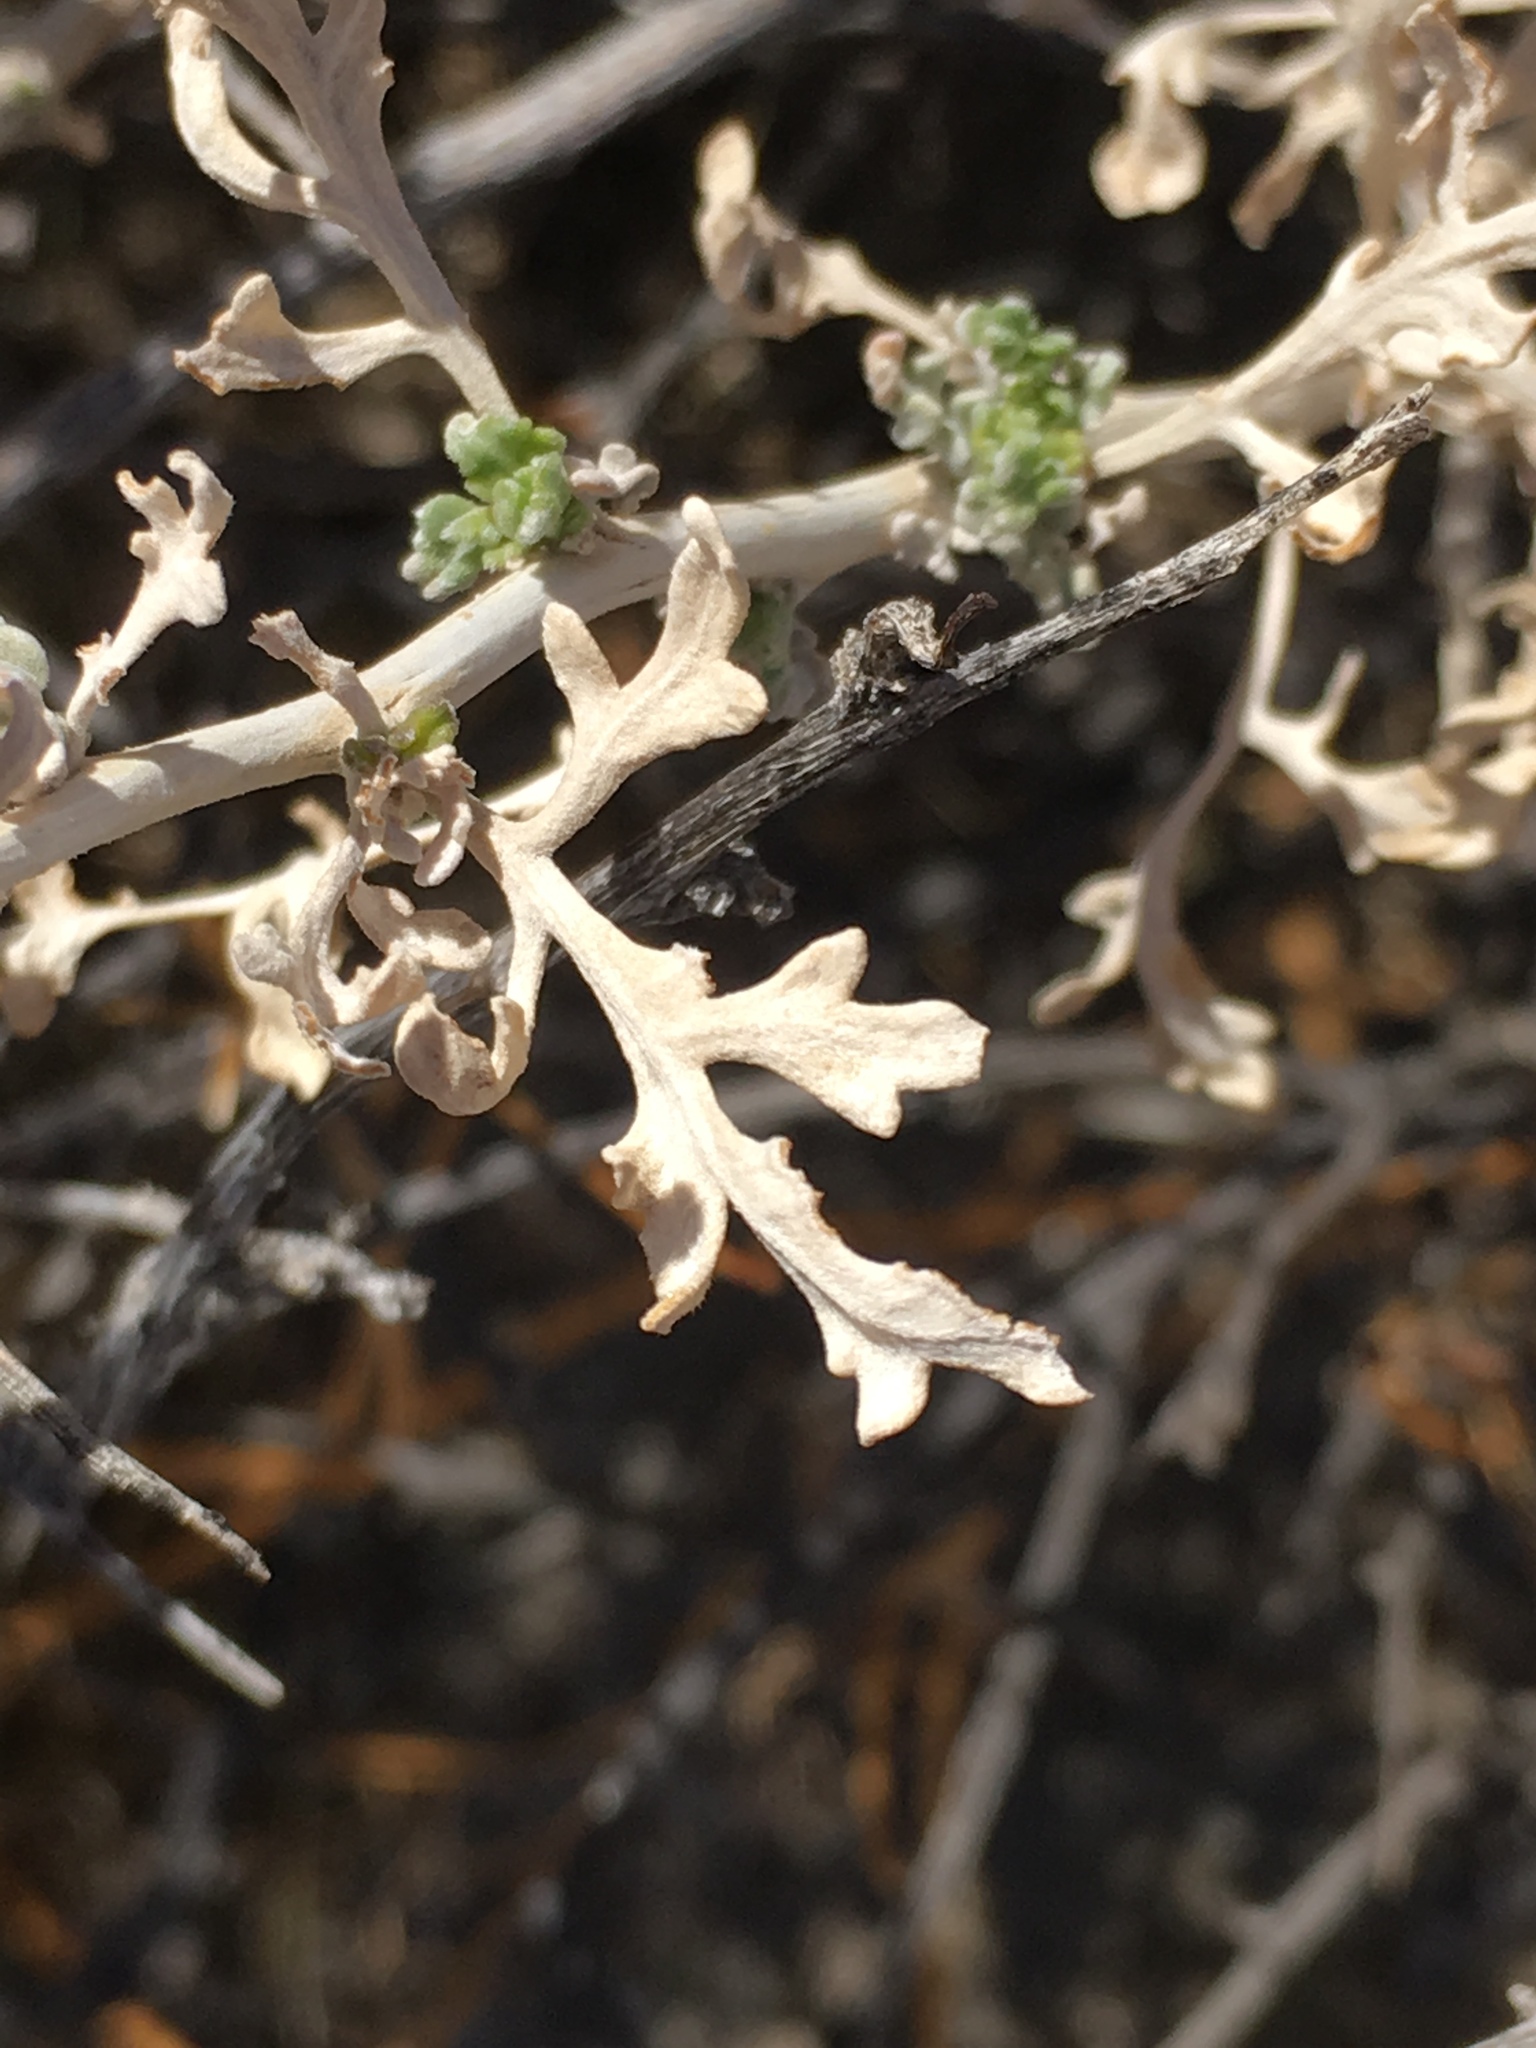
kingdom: Plantae
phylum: Tracheophyta
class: Magnoliopsida
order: Asterales
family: Asteraceae
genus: Ambrosia
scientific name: Ambrosia dumosa
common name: Bur-sage
